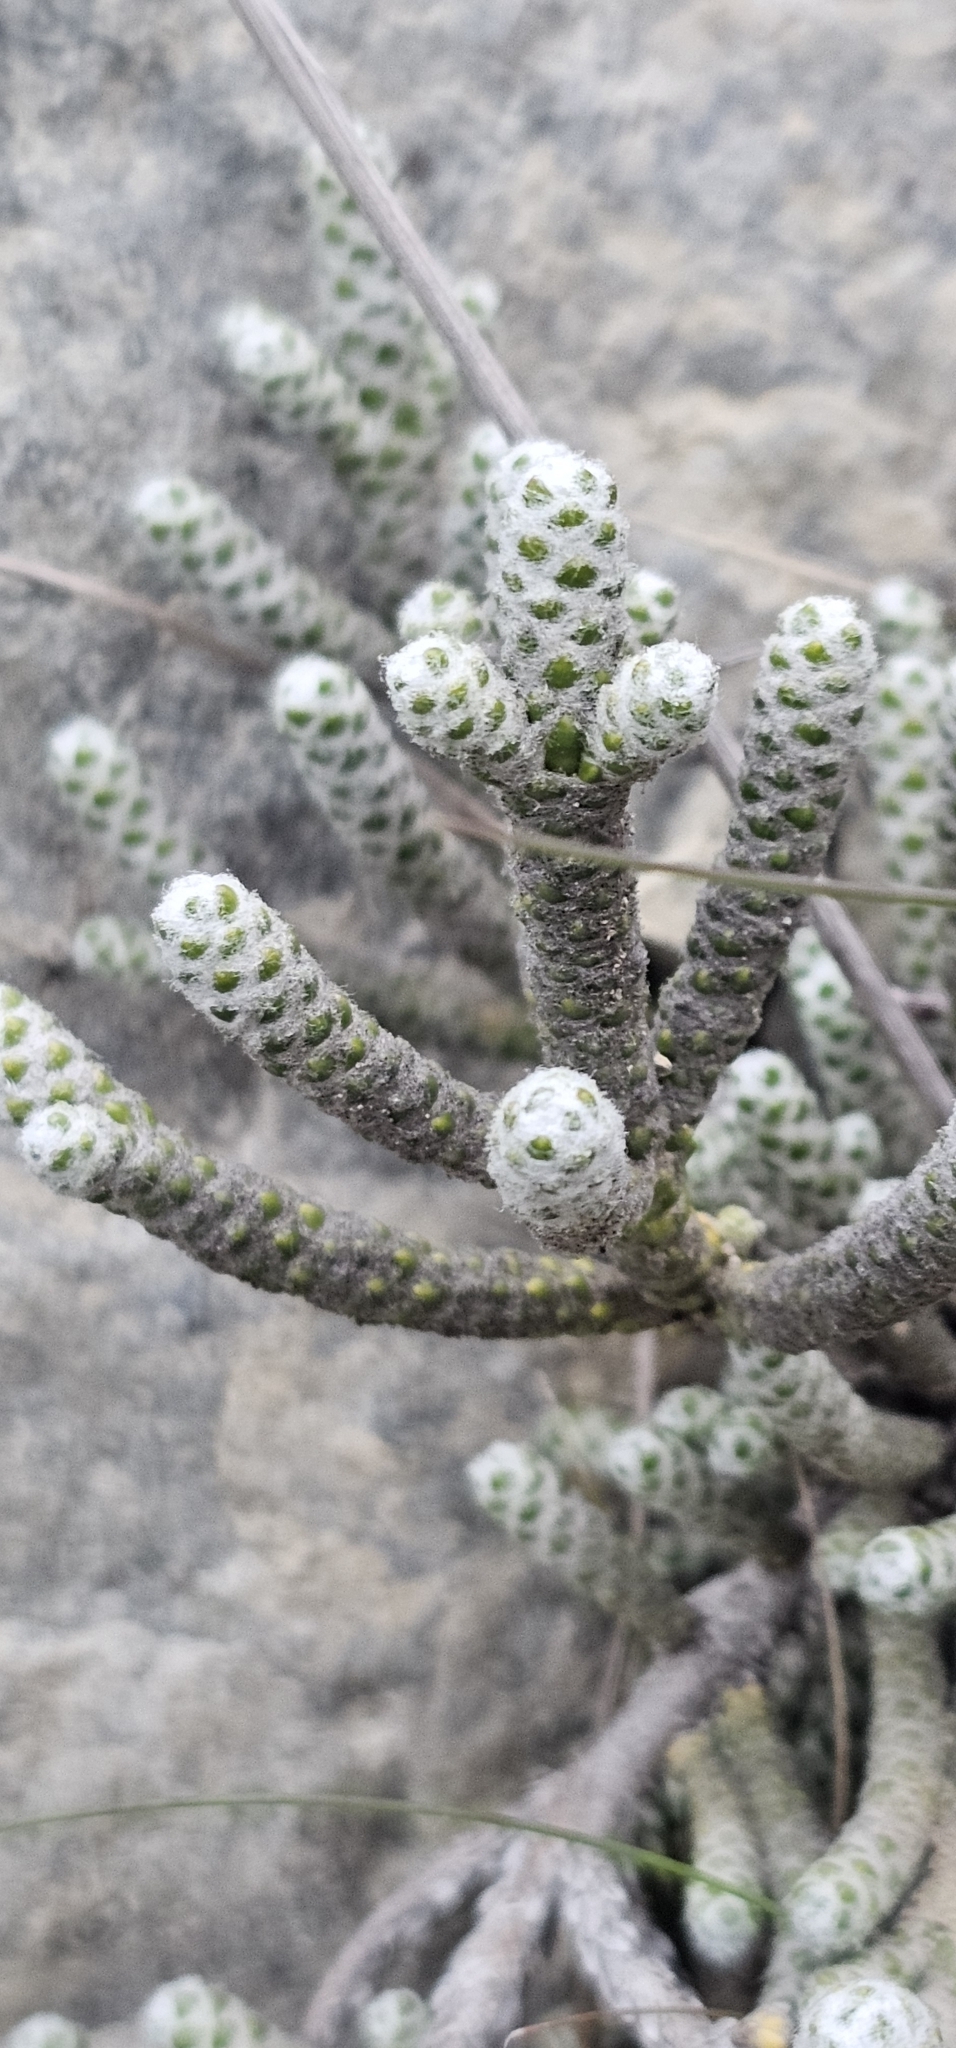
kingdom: Plantae
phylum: Tracheophyta
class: Magnoliopsida
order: Asterales
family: Asteraceae
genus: Ozothamnus
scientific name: Ozothamnus coralloides
